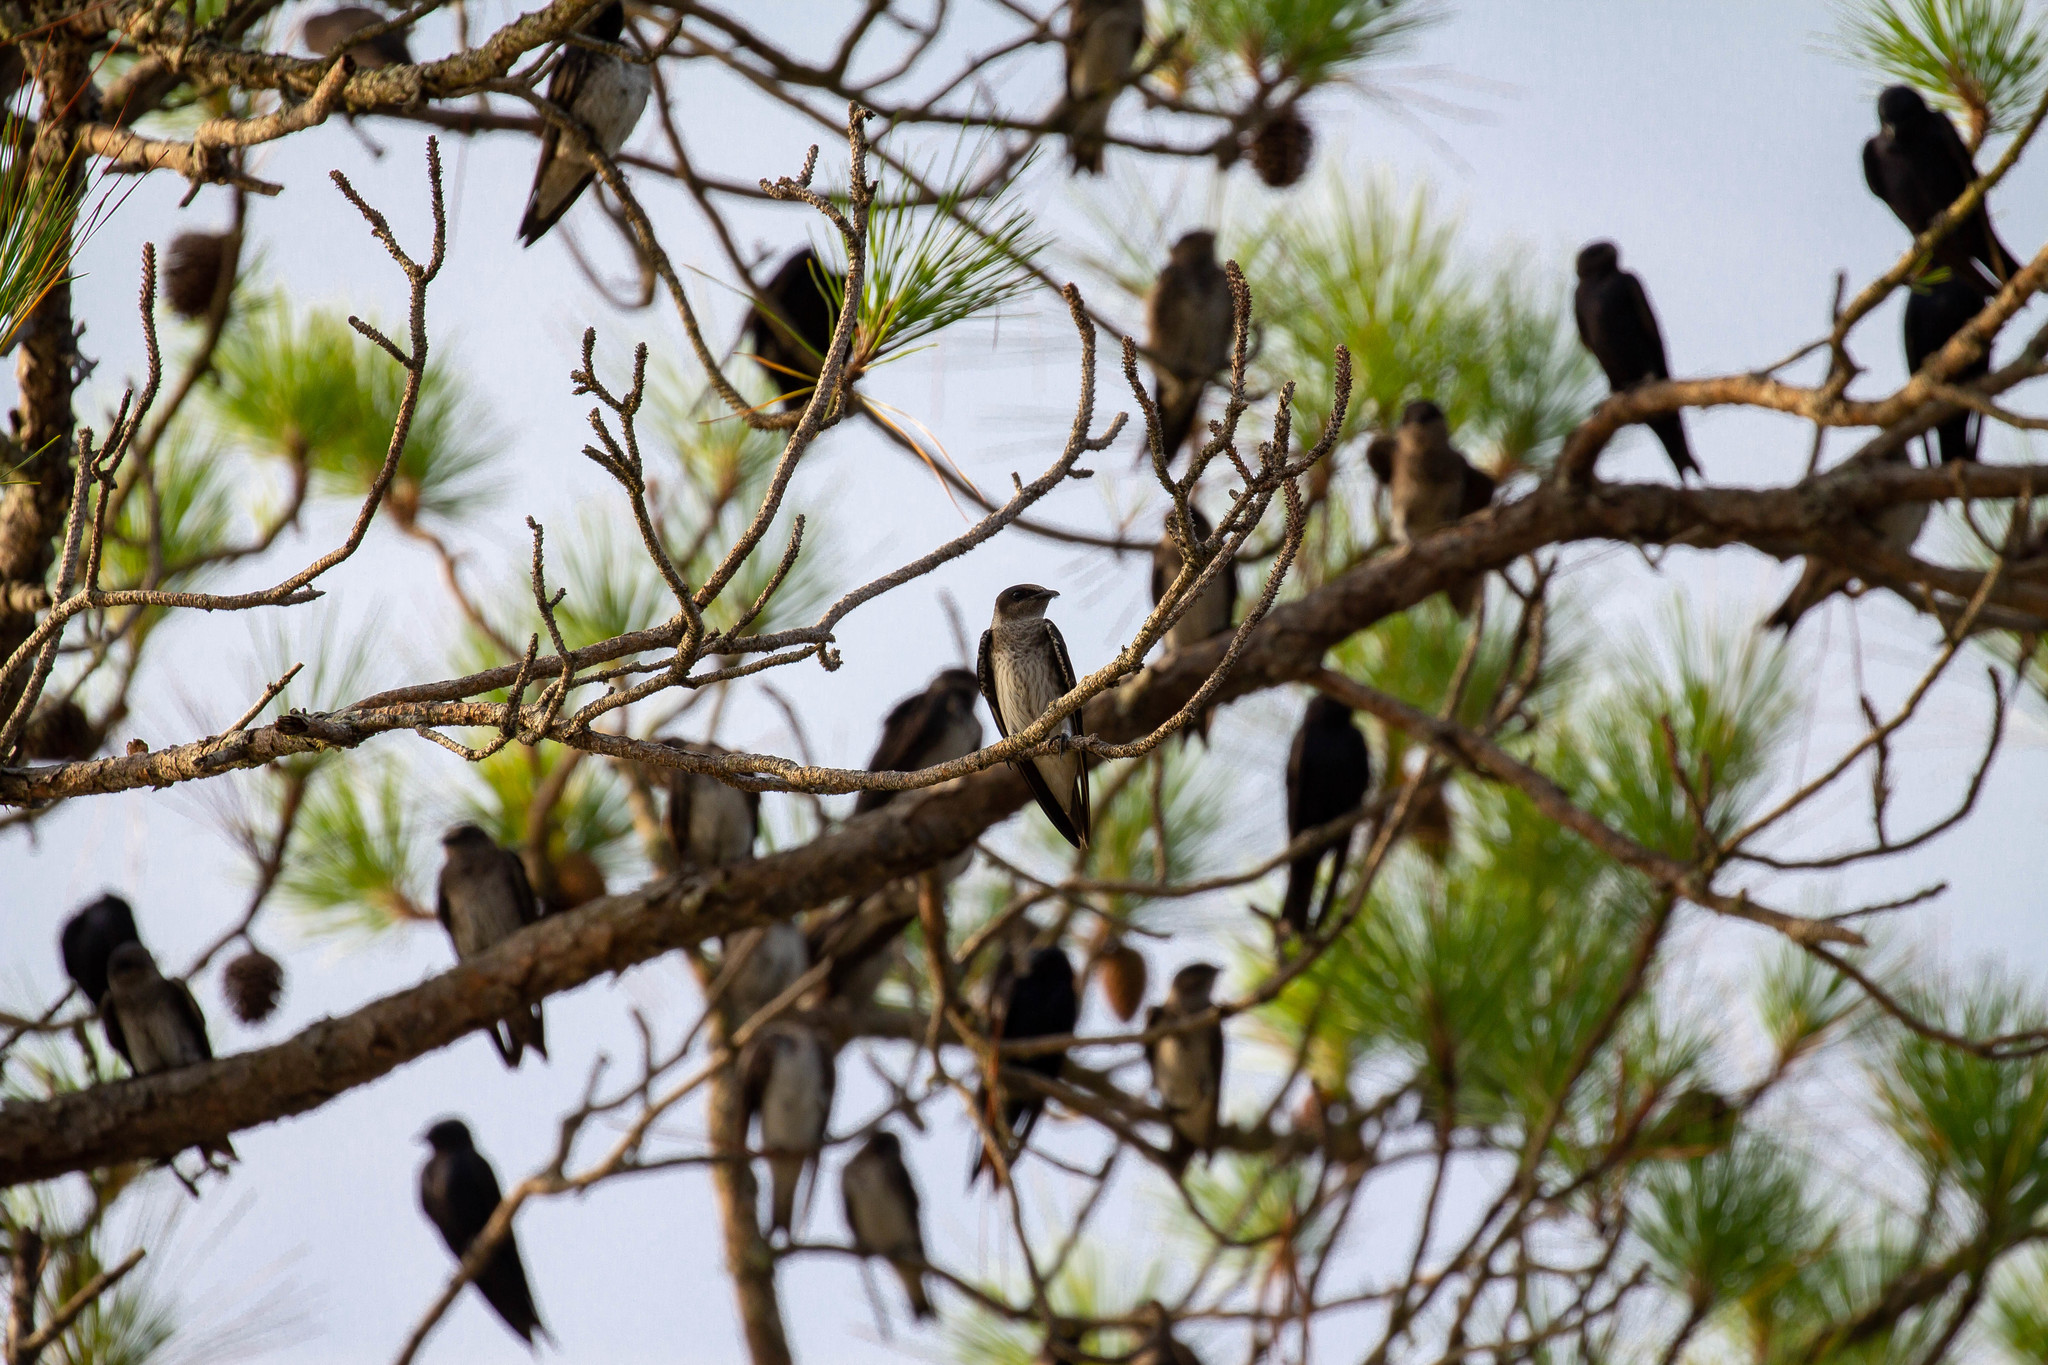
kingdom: Animalia
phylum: Chordata
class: Aves
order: Passeriformes
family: Hirundinidae
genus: Progne
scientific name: Progne subis
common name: Purple martin
